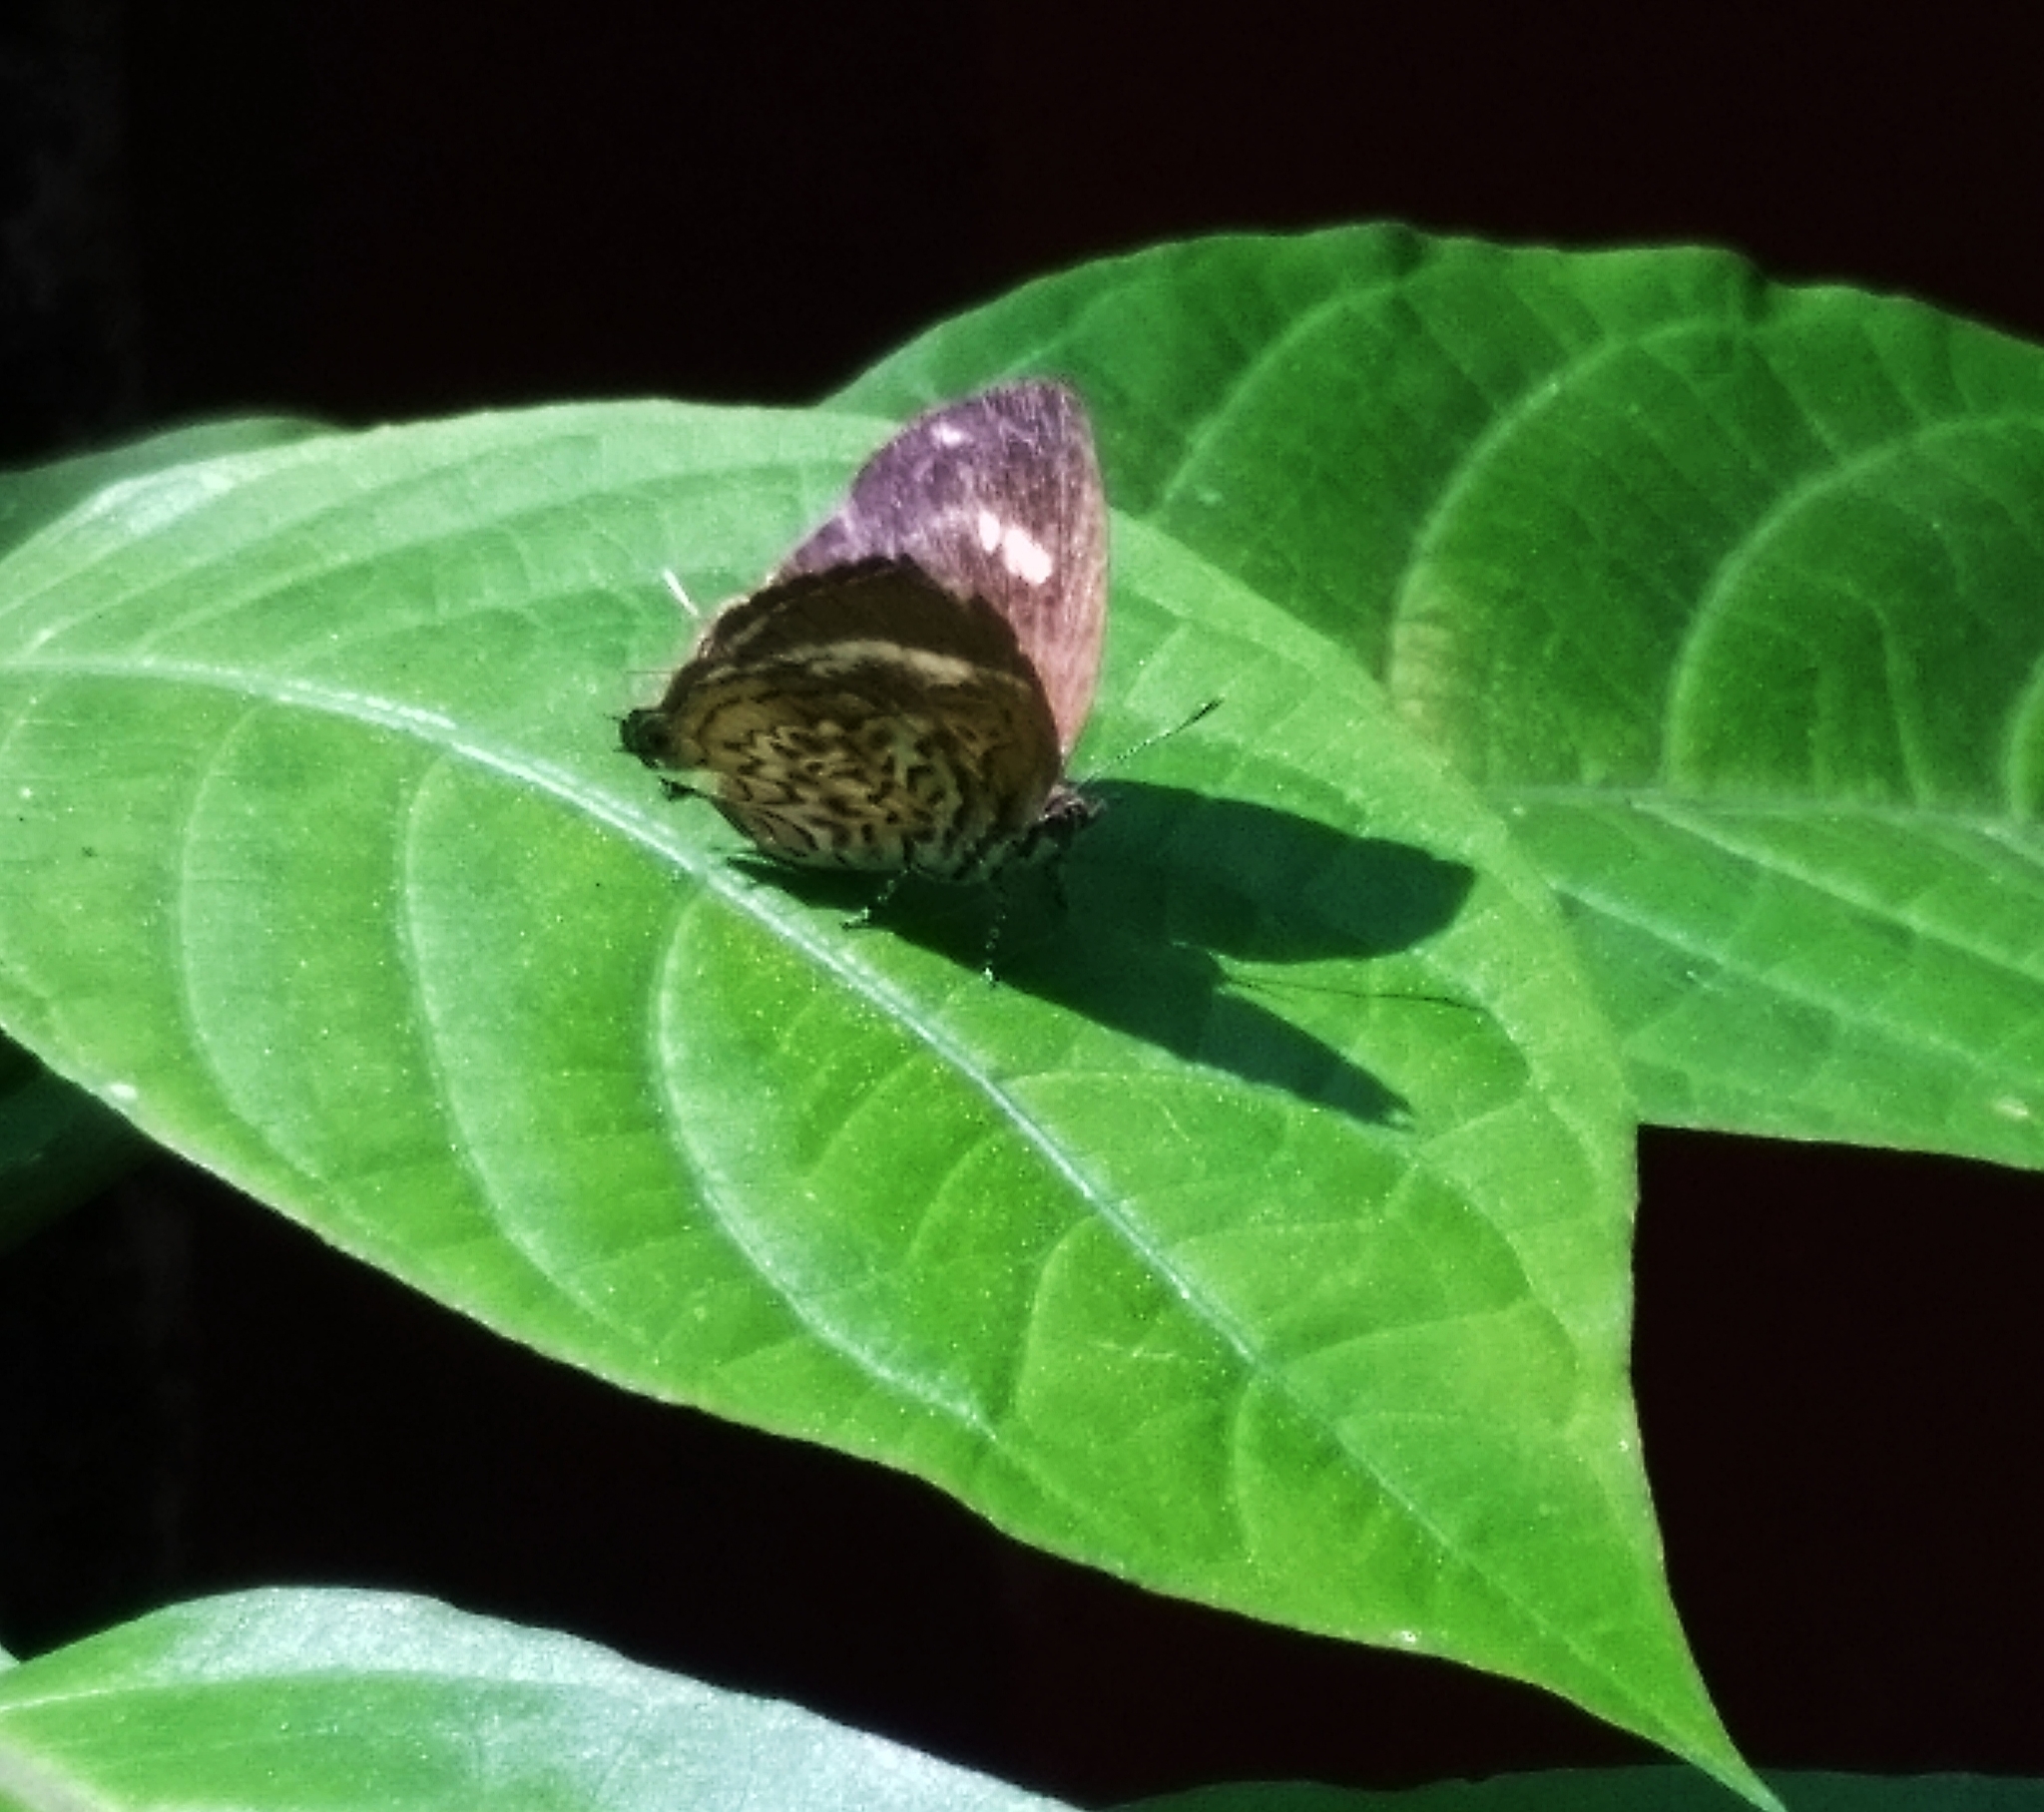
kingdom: Animalia
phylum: Arthropoda
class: Insecta
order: Lepidoptera
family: Lycaenidae
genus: Rathinda
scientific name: Rathinda amor
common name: Monkey puzzle
